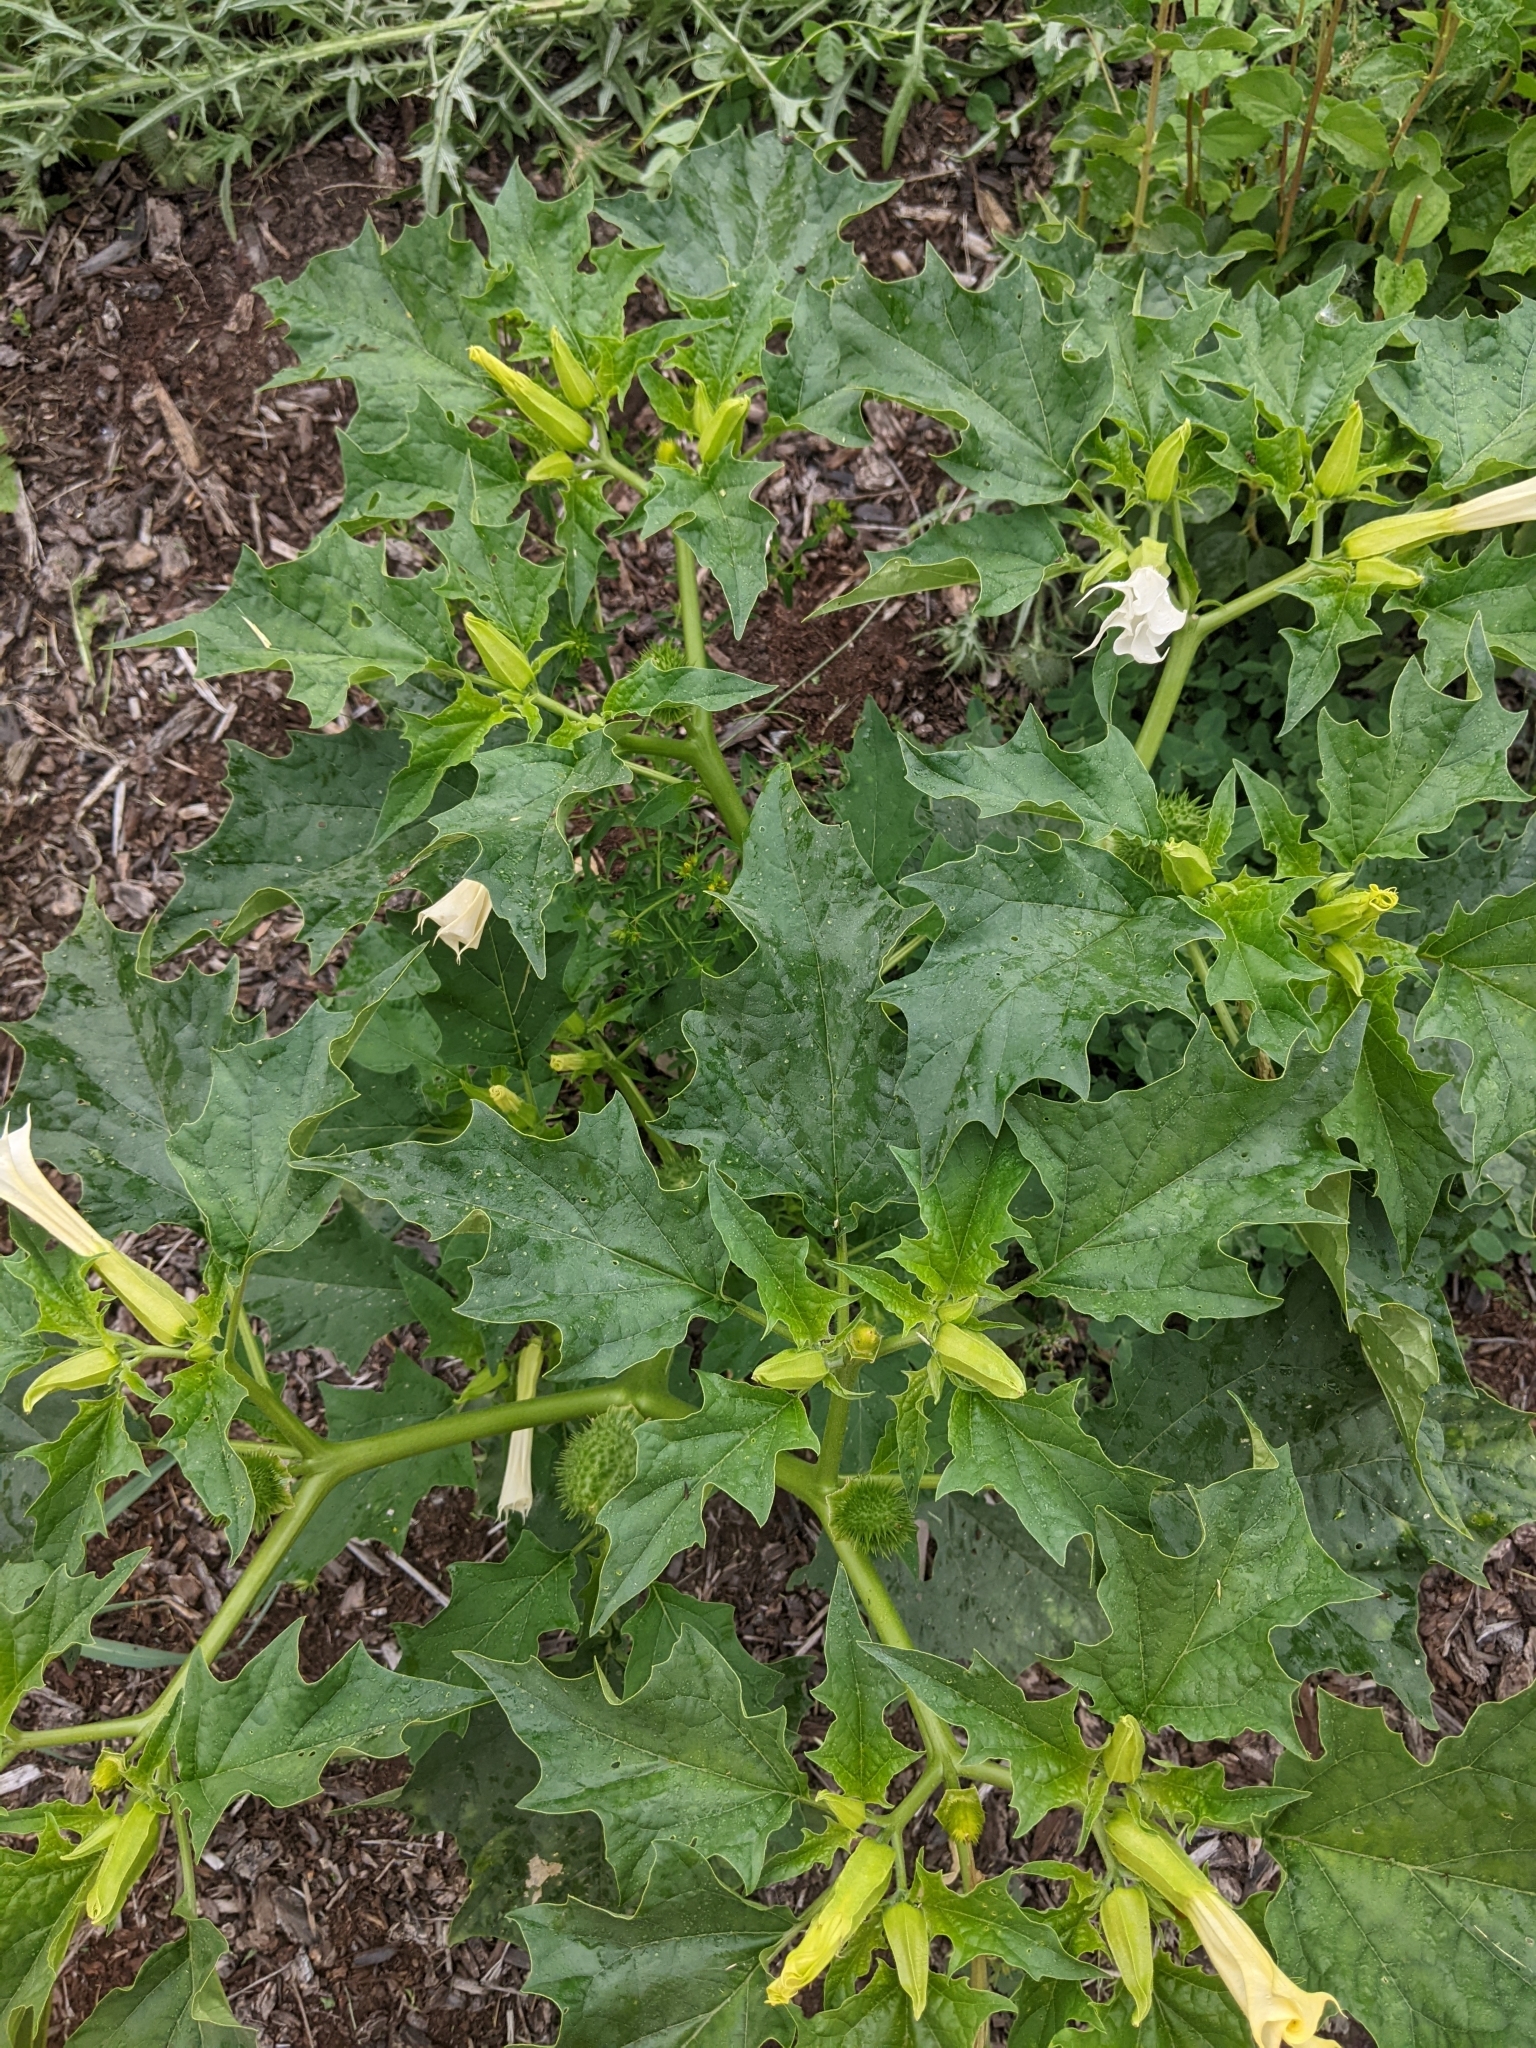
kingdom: Plantae
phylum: Tracheophyta
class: Magnoliopsida
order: Solanales
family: Solanaceae
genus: Datura
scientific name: Datura stramonium
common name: Thorn-apple
